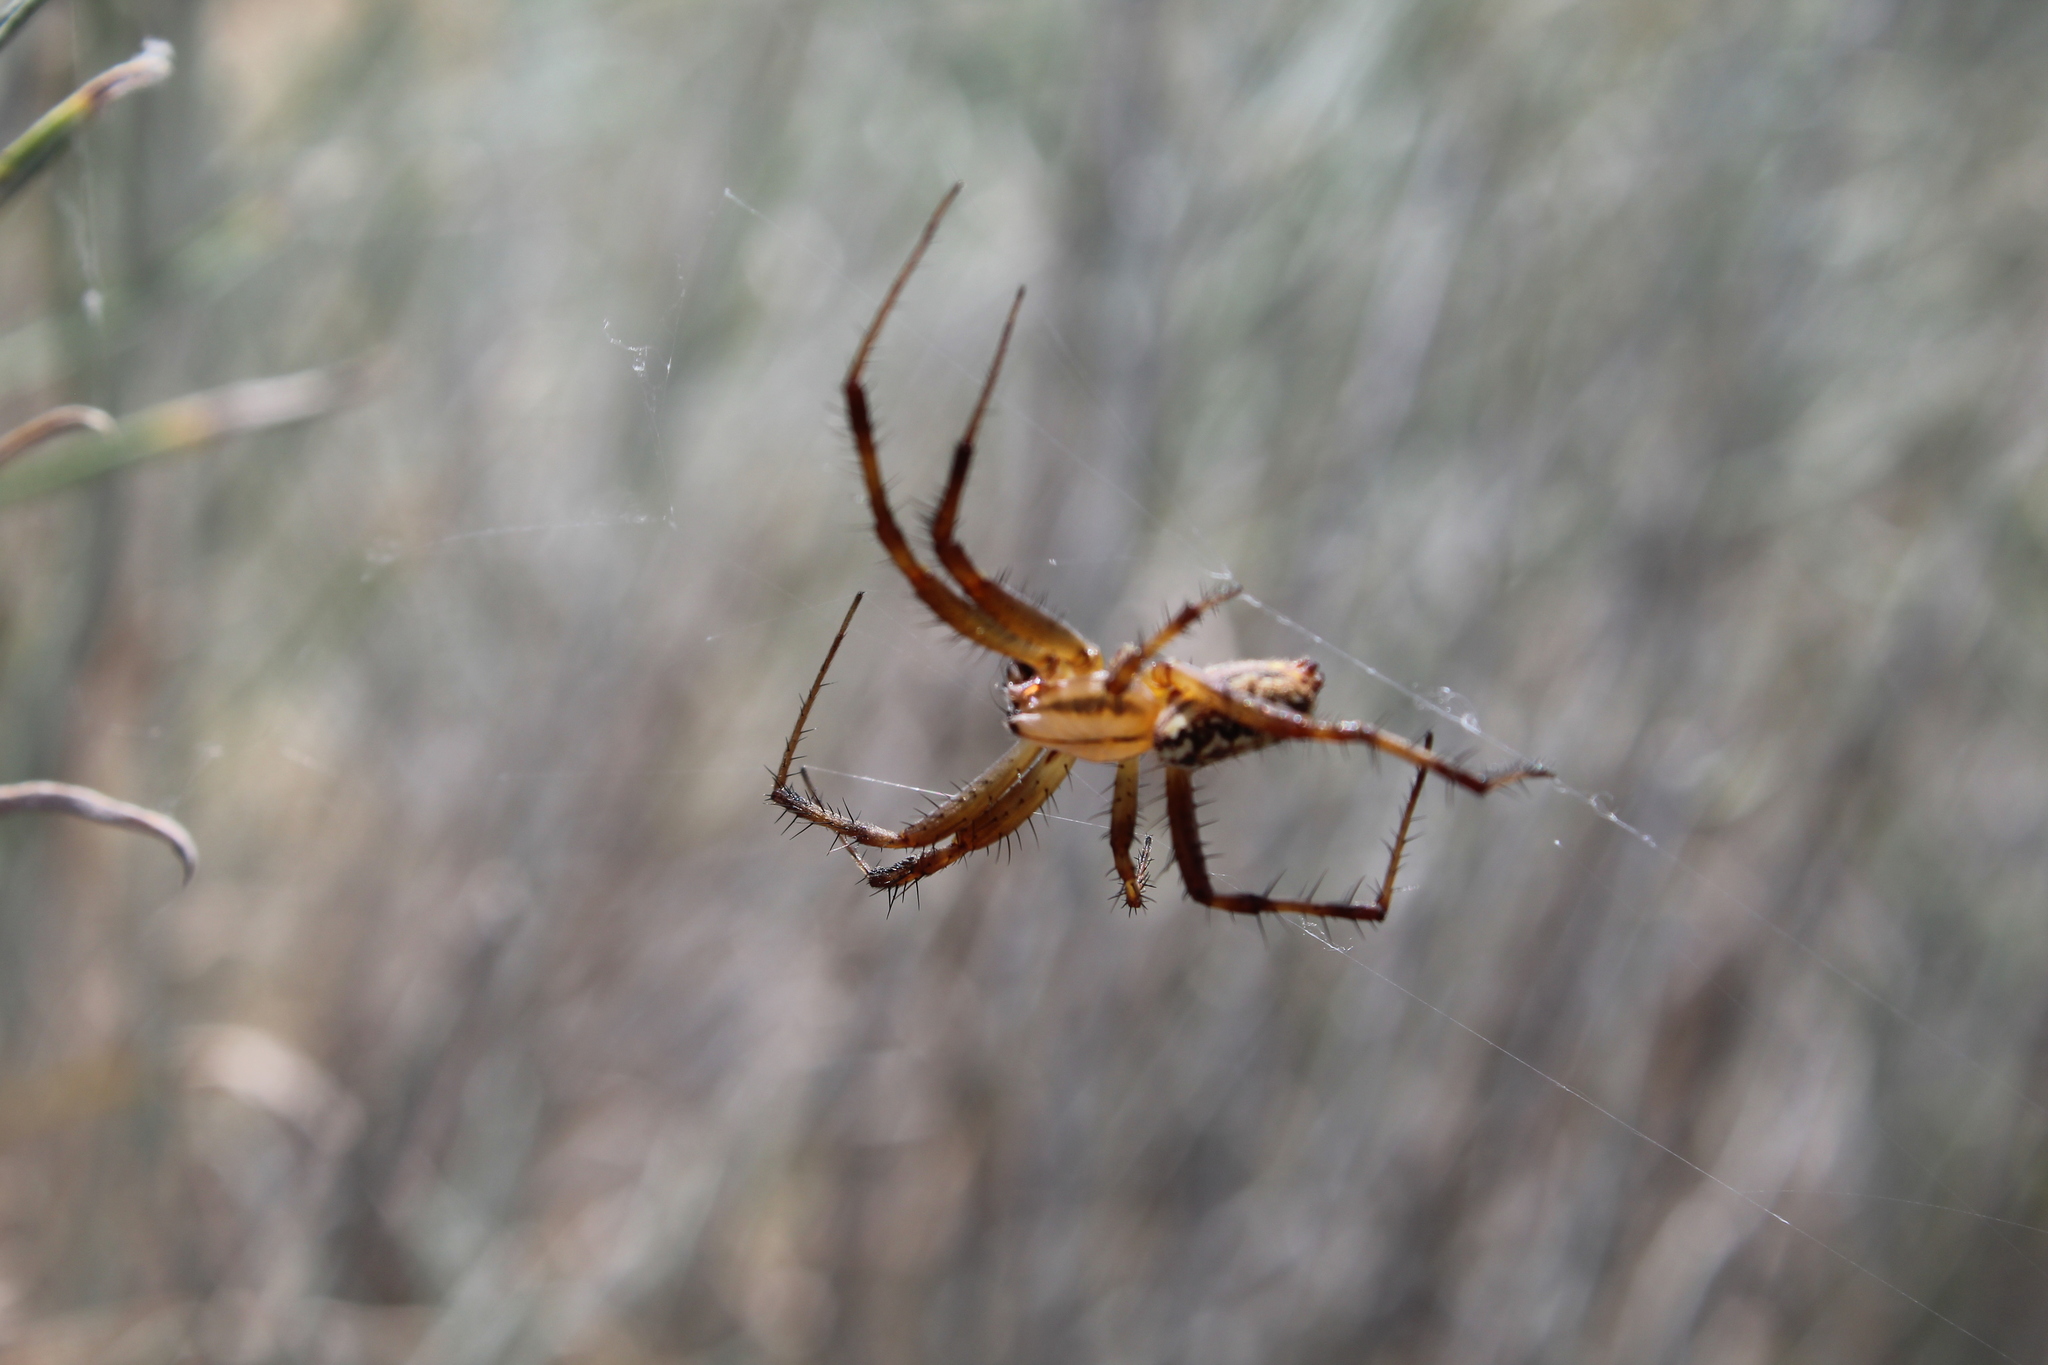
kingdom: Animalia
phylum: Arthropoda
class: Arachnida
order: Araneae
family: Araneidae
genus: Neoscona
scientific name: Neoscona oaxacensis
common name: Orb weavers
